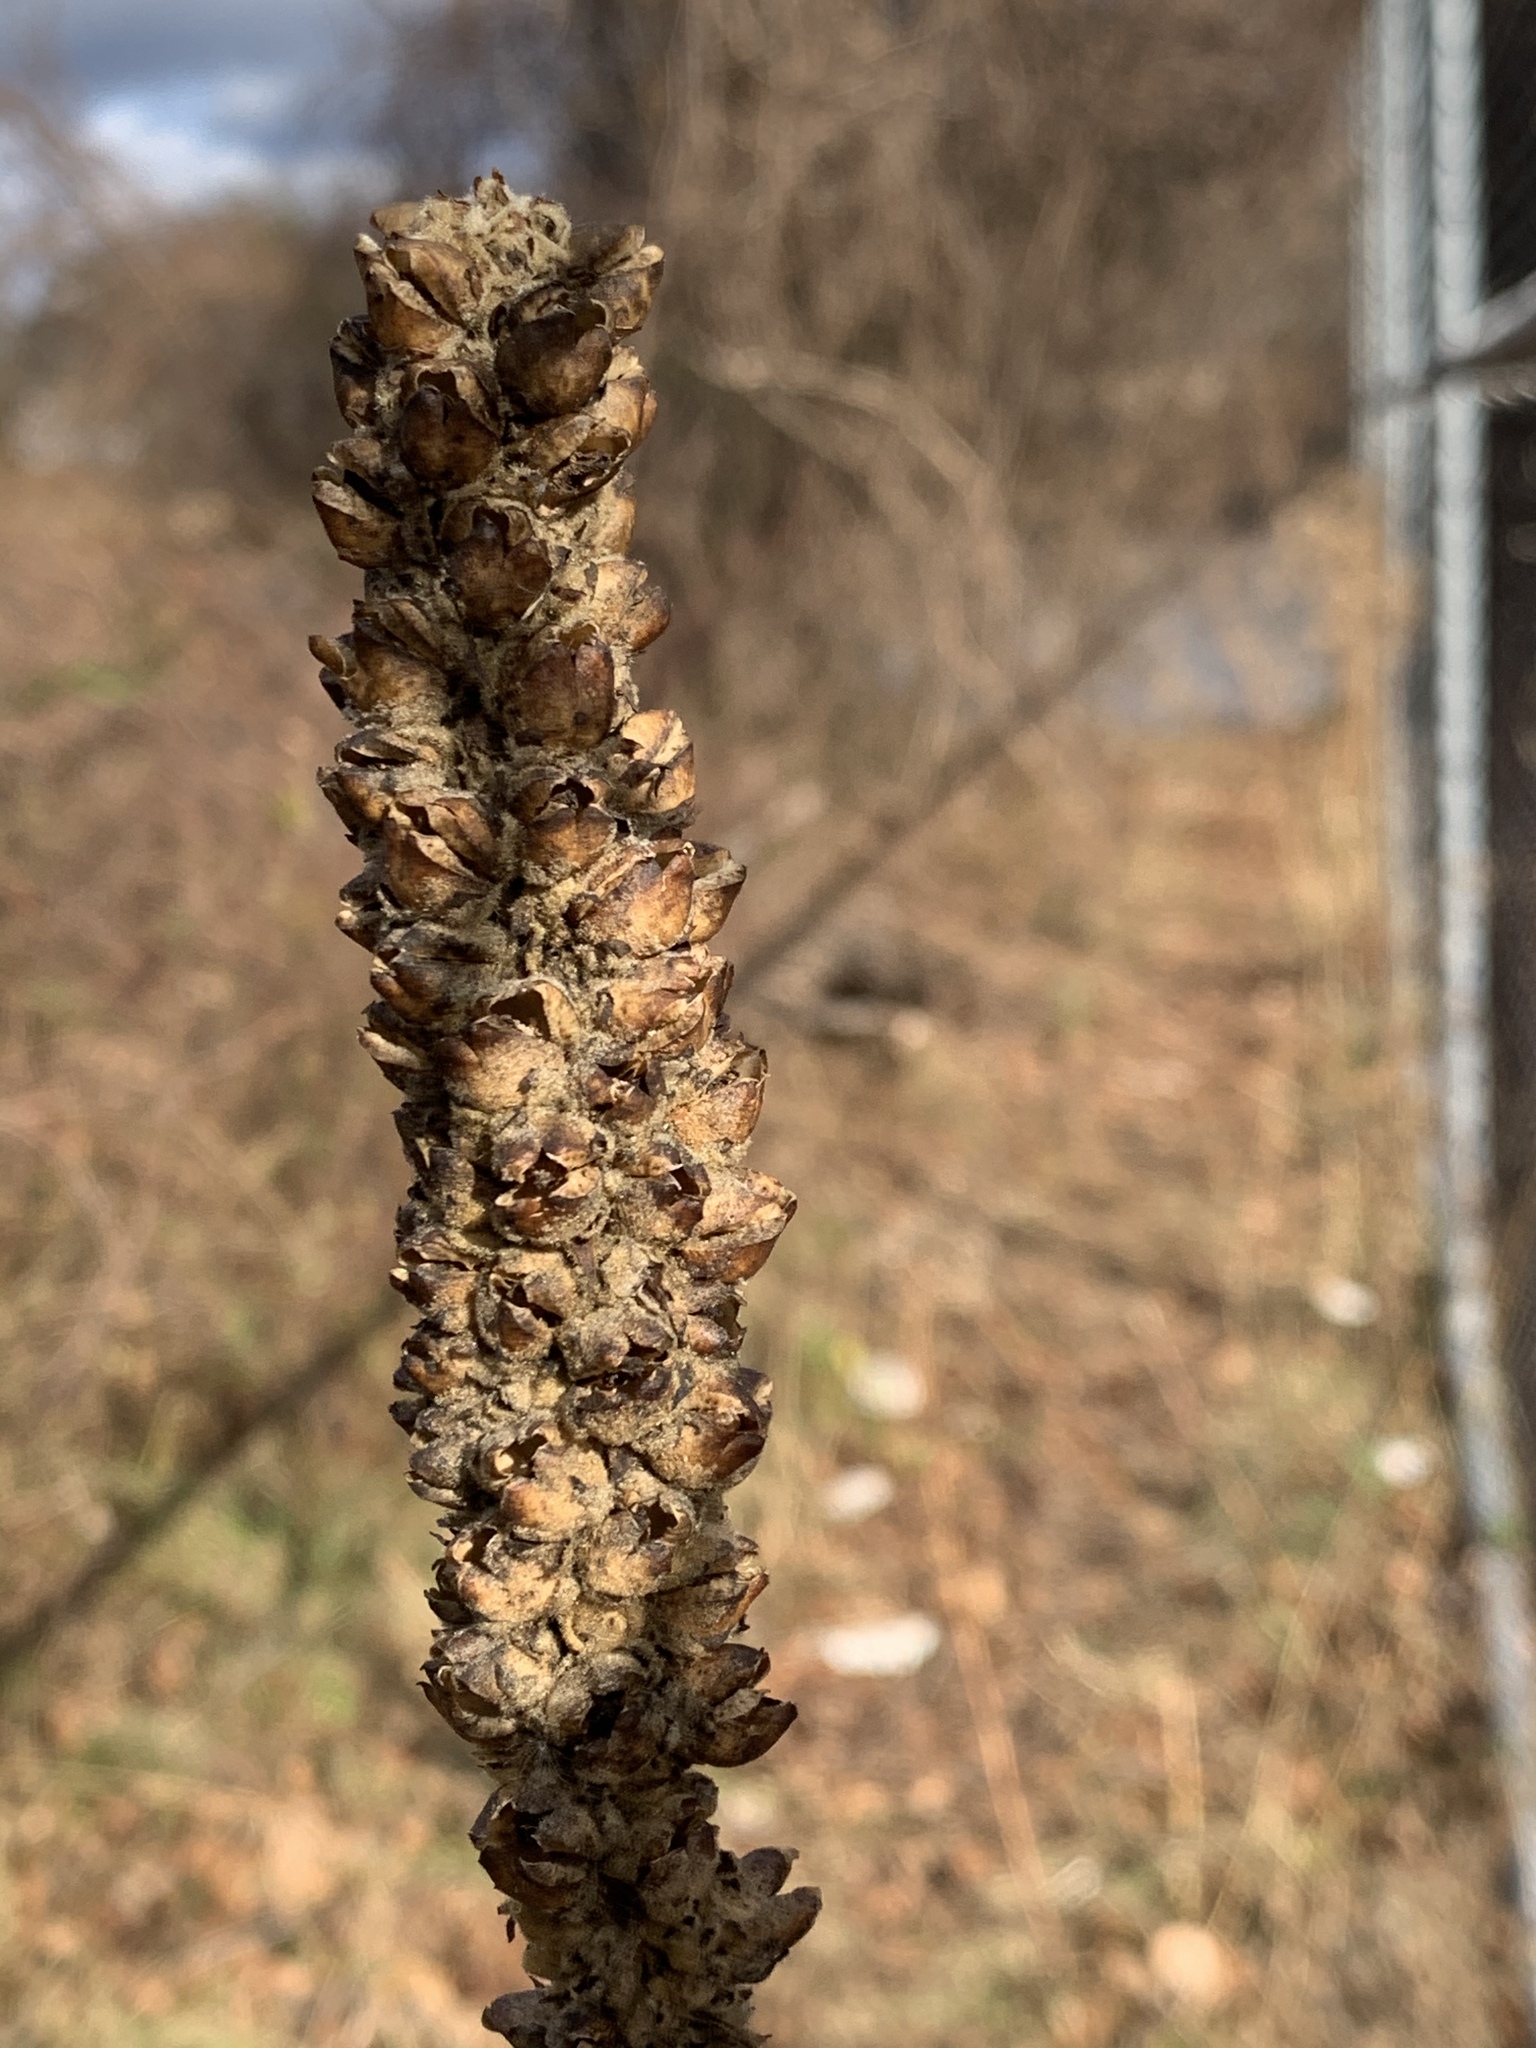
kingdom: Plantae
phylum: Tracheophyta
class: Magnoliopsida
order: Lamiales
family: Scrophulariaceae
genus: Verbascum
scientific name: Verbascum thapsus
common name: Common mullein
